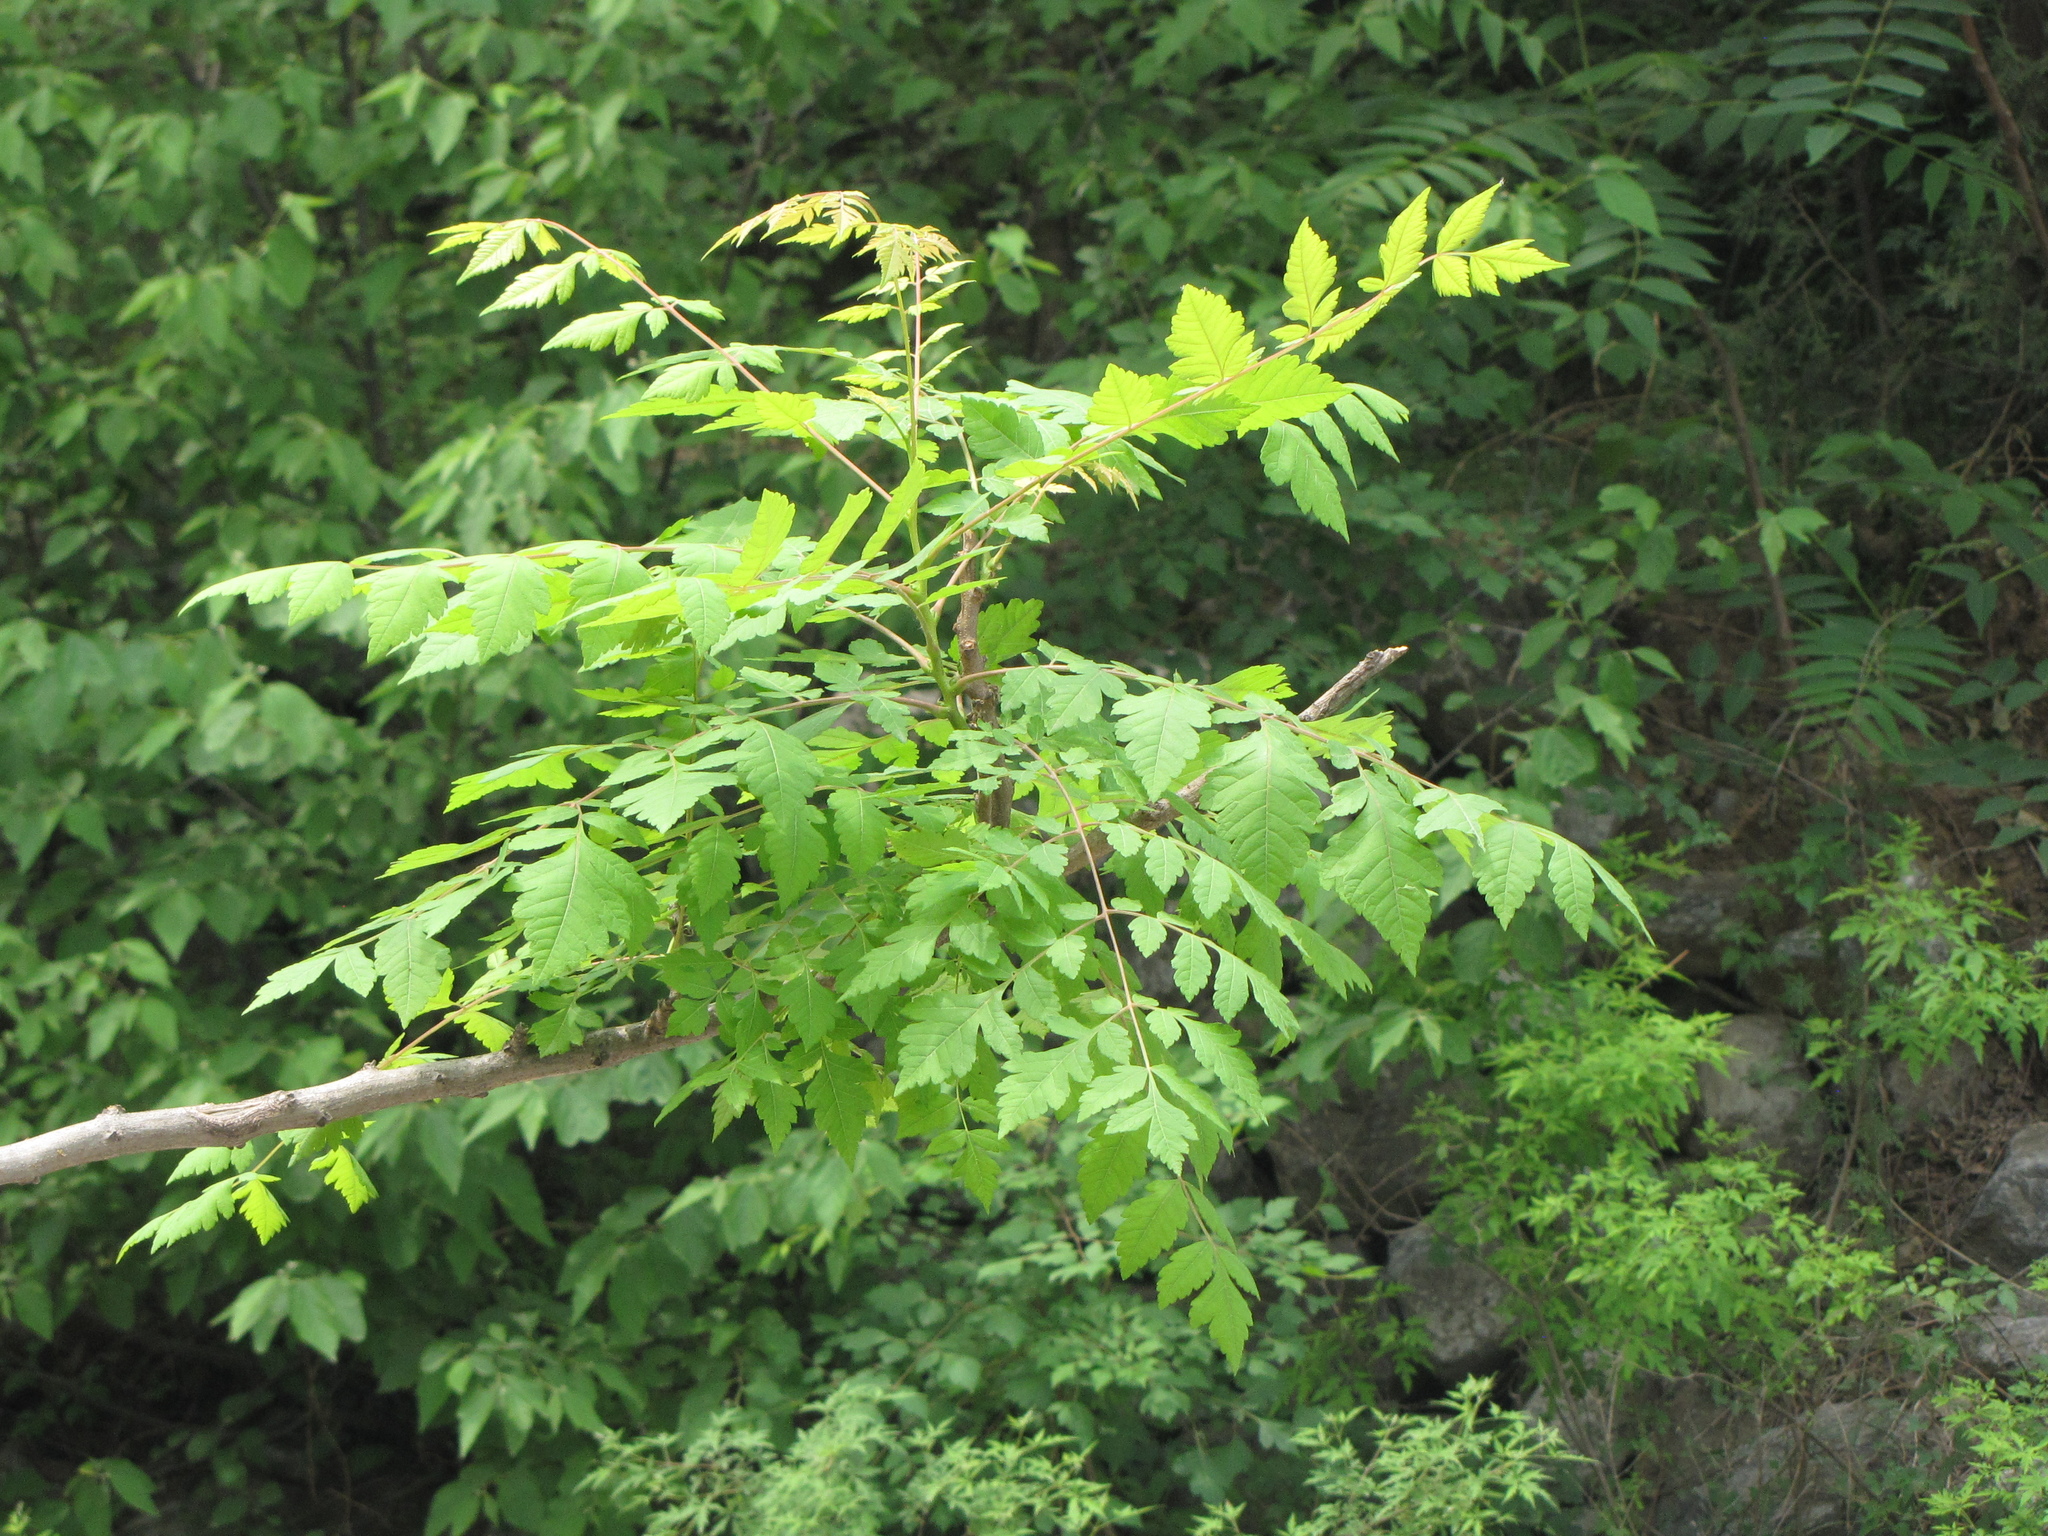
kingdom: Plantae
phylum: Tracheophyta
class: Magnoliopsida
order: Sapindales
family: Sapindaceae
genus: Koelreuteria
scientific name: Koelreuteria paniculata
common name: Pride-of-india
